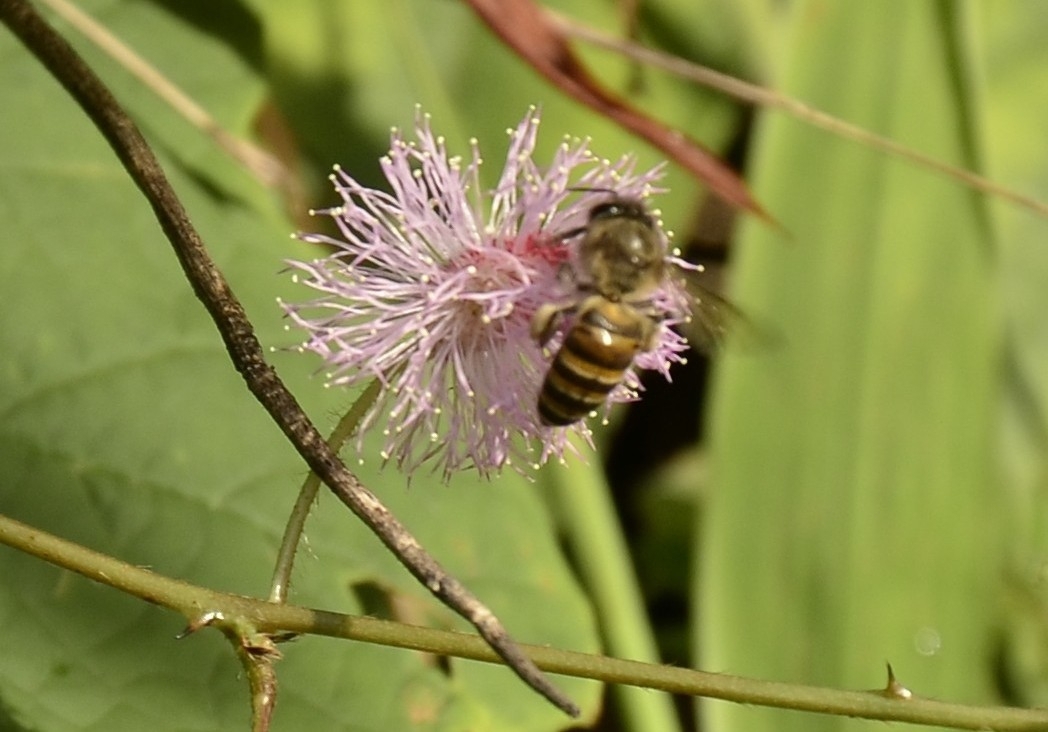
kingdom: Animalia
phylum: Arthropoda
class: Insecta
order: Hymenoptera
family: Apidae
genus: Apis
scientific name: Apis cerana
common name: Honey bee
